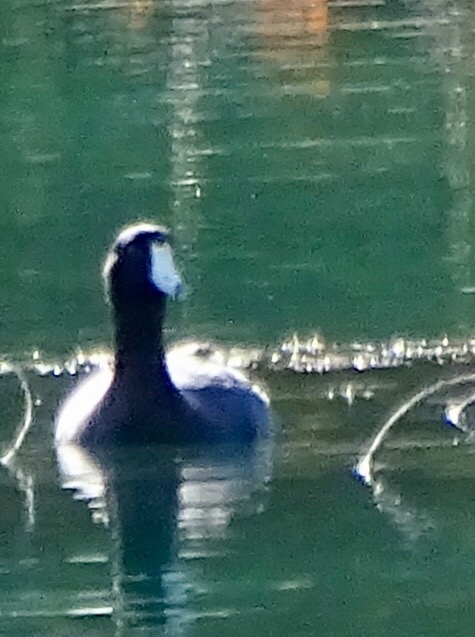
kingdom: Animalia
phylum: Chordata
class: Aves
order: Gruiformes
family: Rallidae
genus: Fulica
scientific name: Fulica americana
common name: American coot
